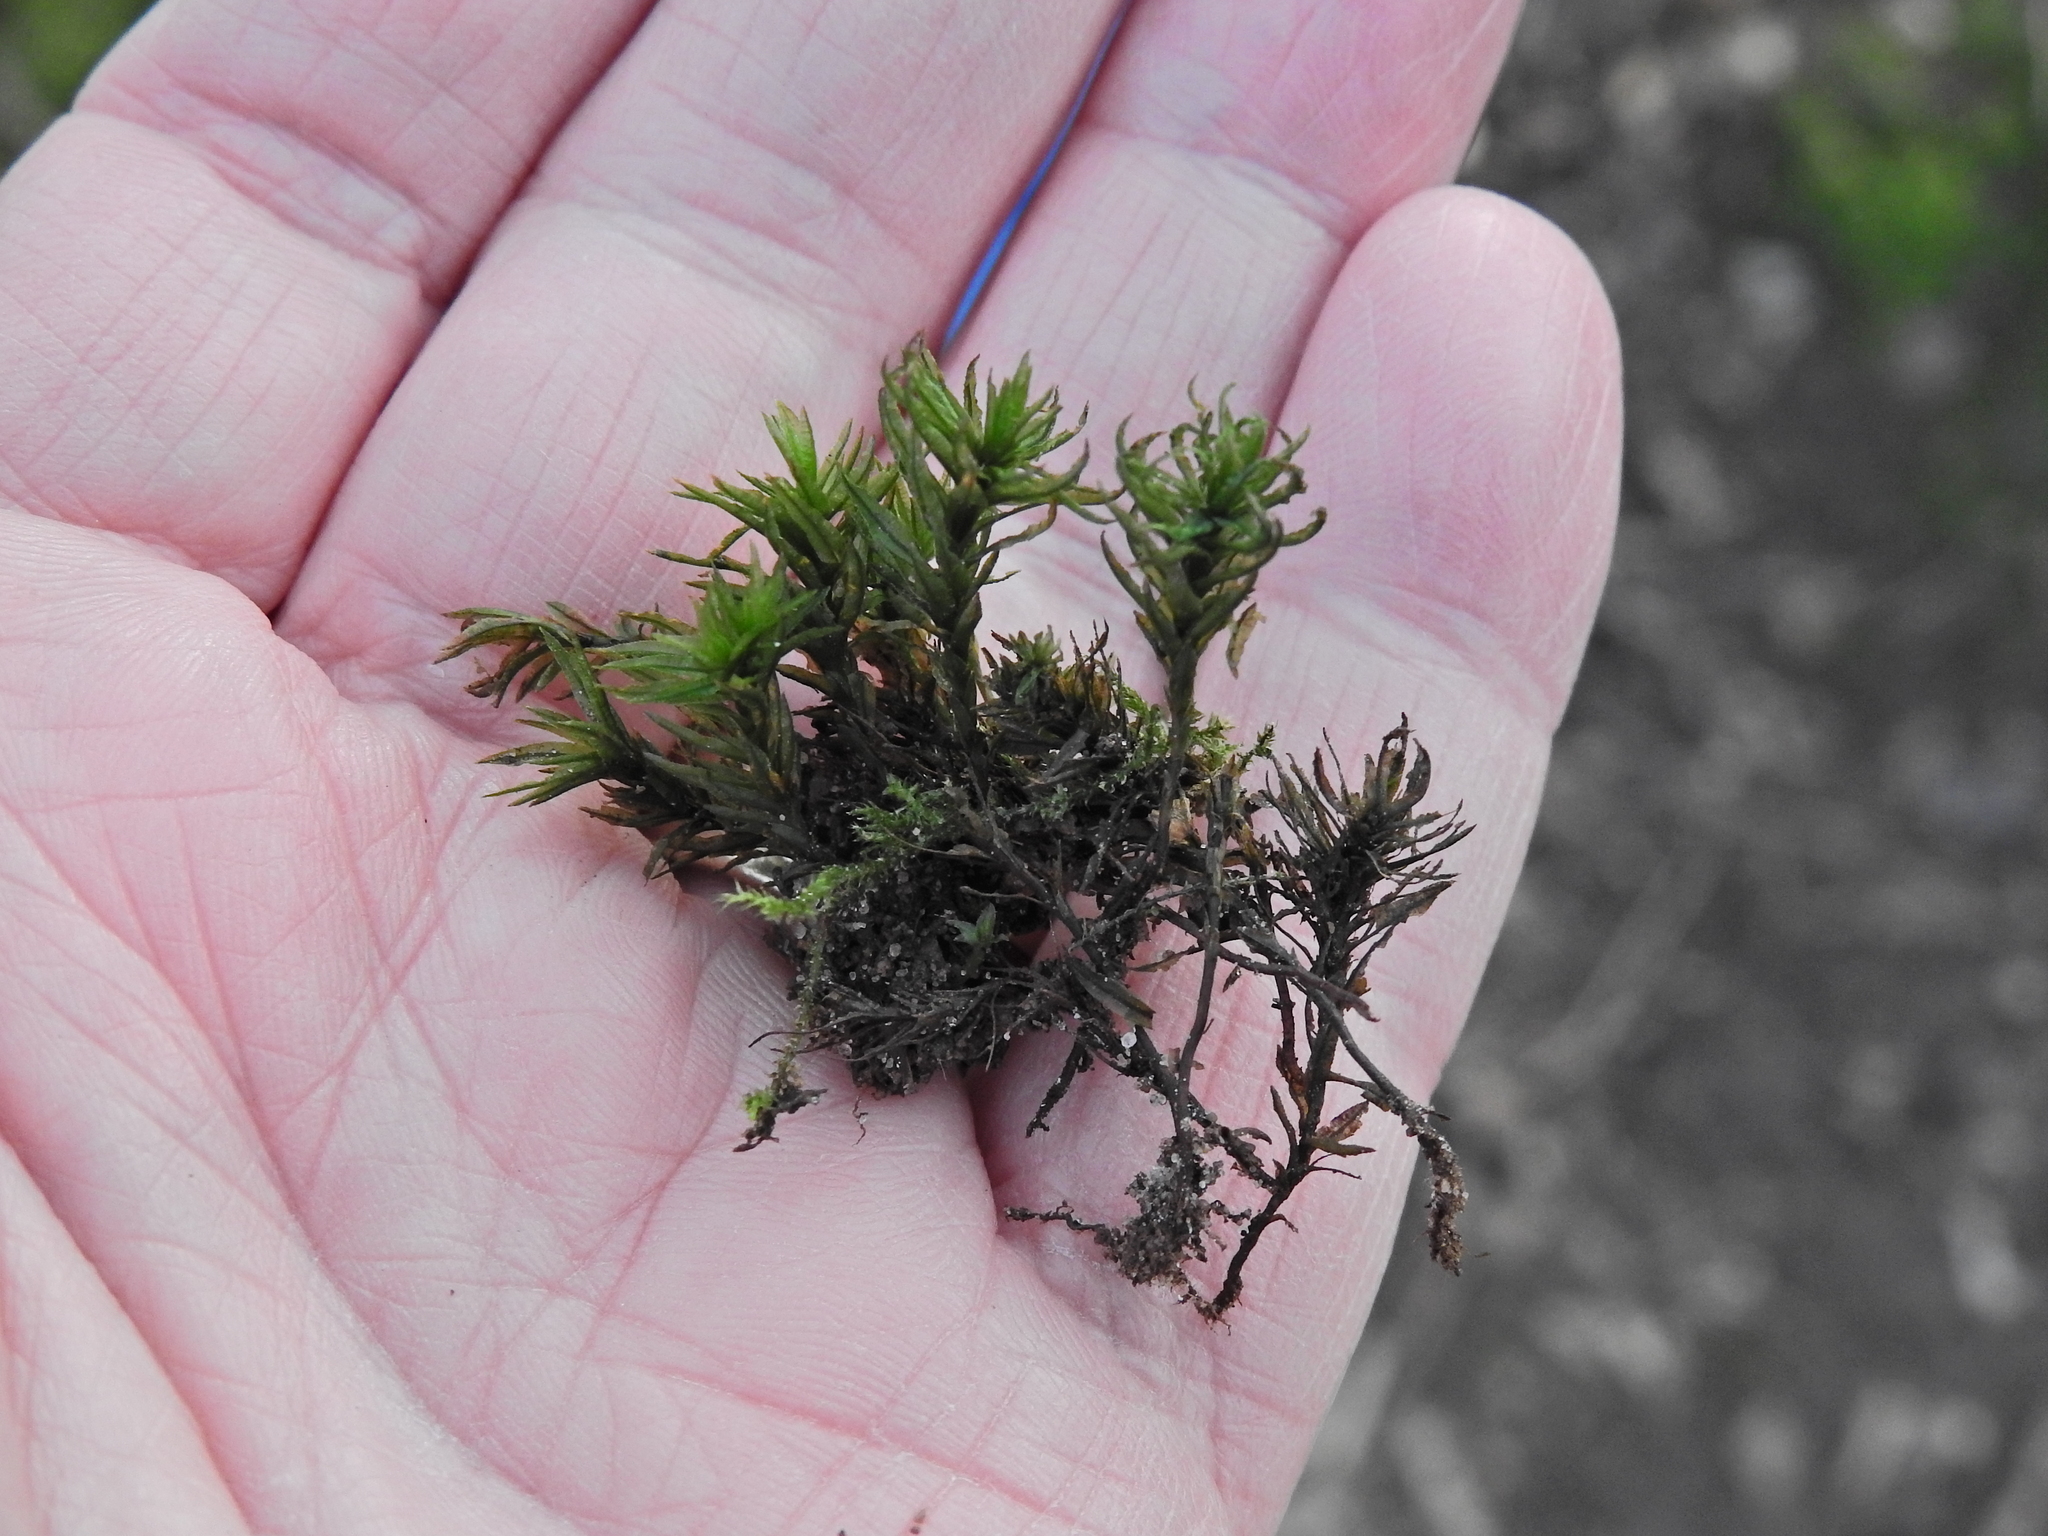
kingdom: Plantae
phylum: Bryophyta
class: Polytrichopsida
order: Polytrichales
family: Polytrichaceae
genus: Atrichum
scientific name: Atrichum undulatum
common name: Common smoothcap
